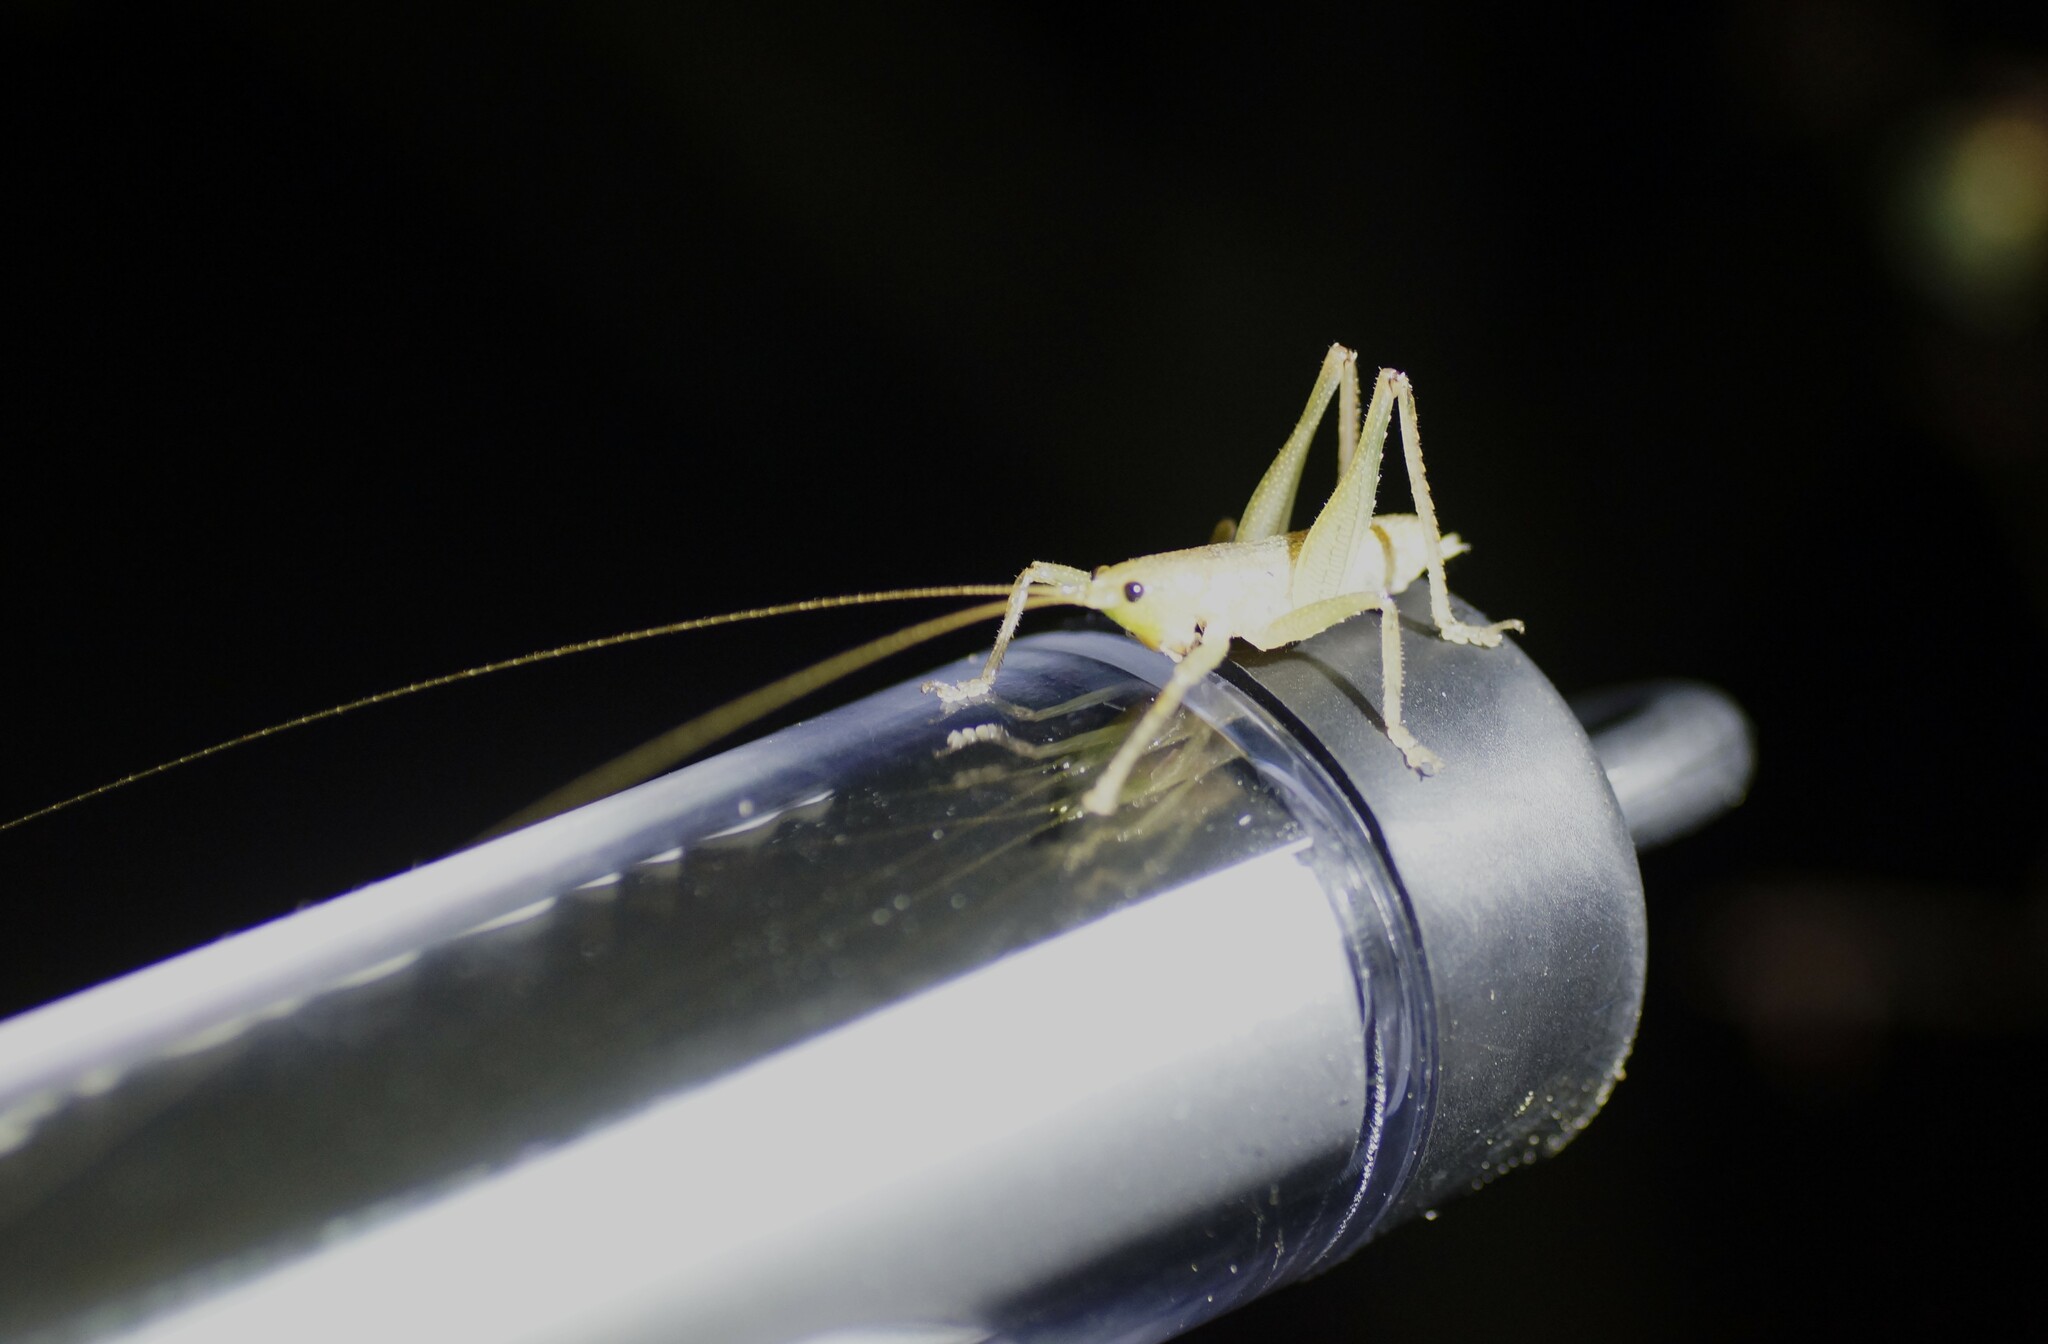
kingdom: Animalia
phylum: Arthropoda
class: Insecta
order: Orthoptera
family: Tettigoniidae
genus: Austrosalomona
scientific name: Austrosalomona destructor
